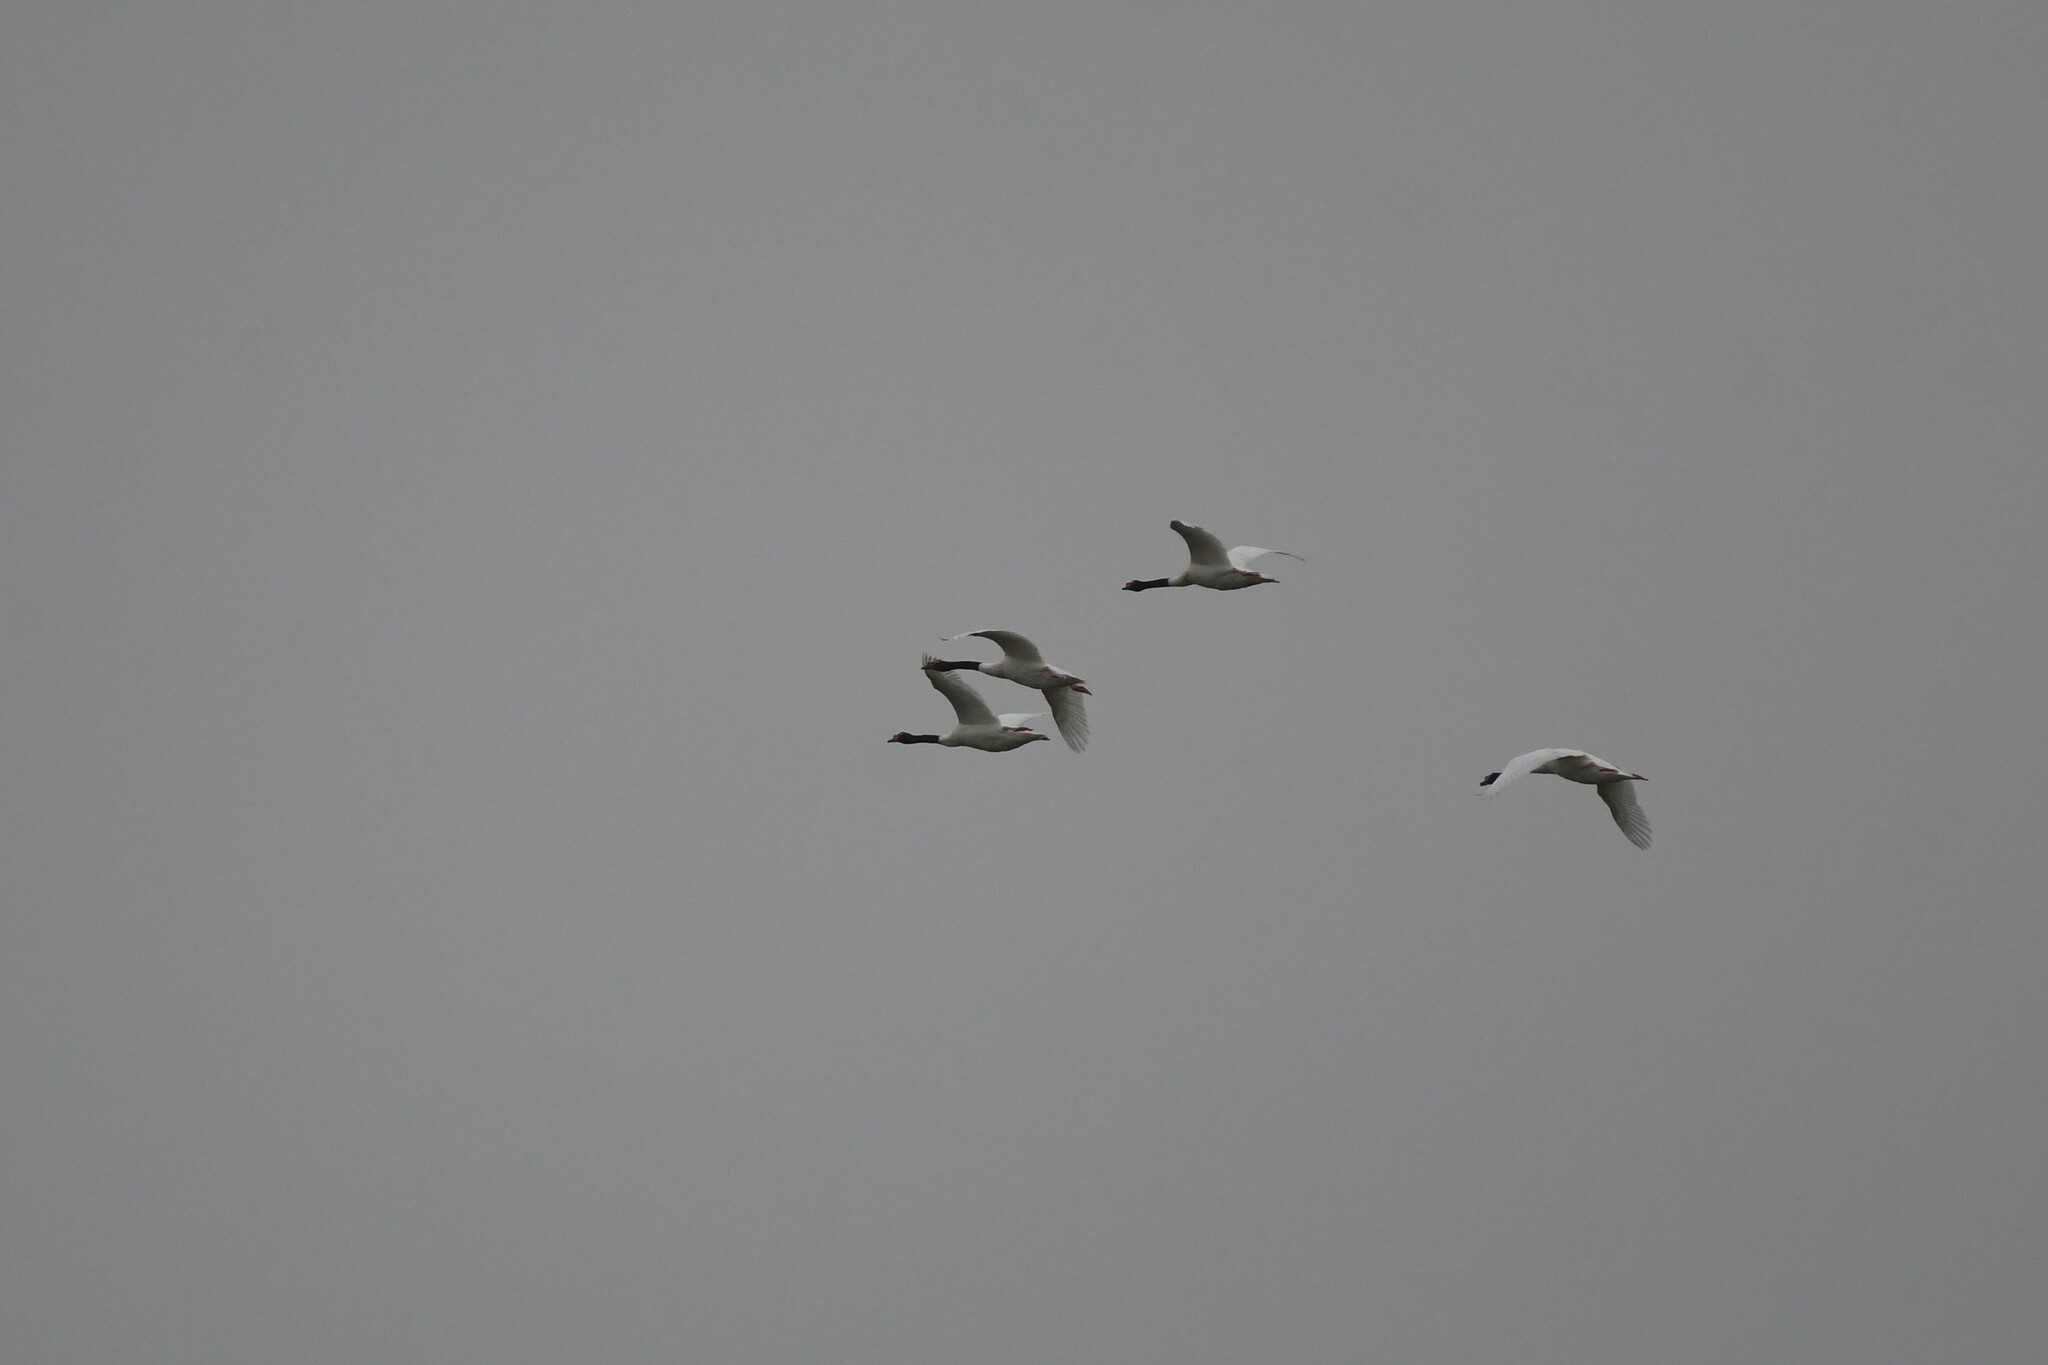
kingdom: Animalia
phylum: Chordata
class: Aves
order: Anseriformes
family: Anatidae
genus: Cygnus
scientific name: Cygnus melancoryphus
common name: Black-necked swan
